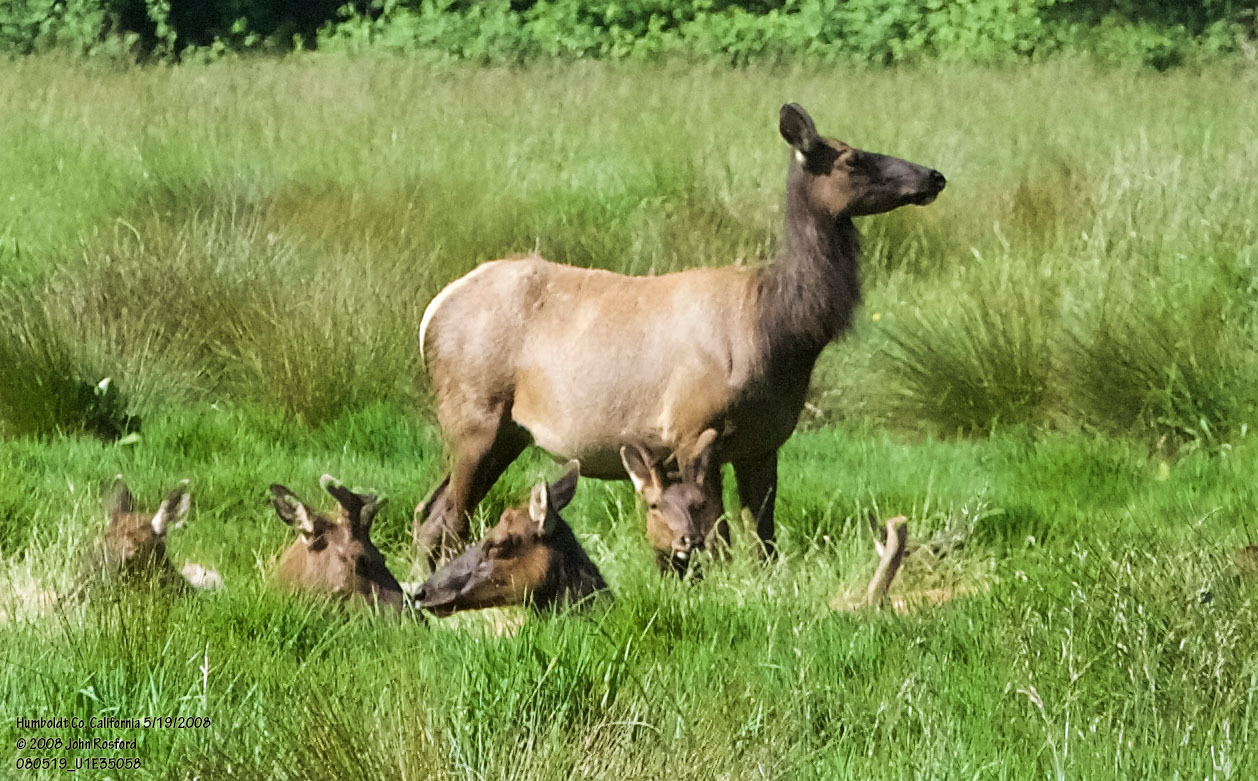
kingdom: Animalia
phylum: Chordata
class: Mammalia
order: Artiodactyla
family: Cervidae
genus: Cervus
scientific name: Cervus elaphus
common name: Red deer
